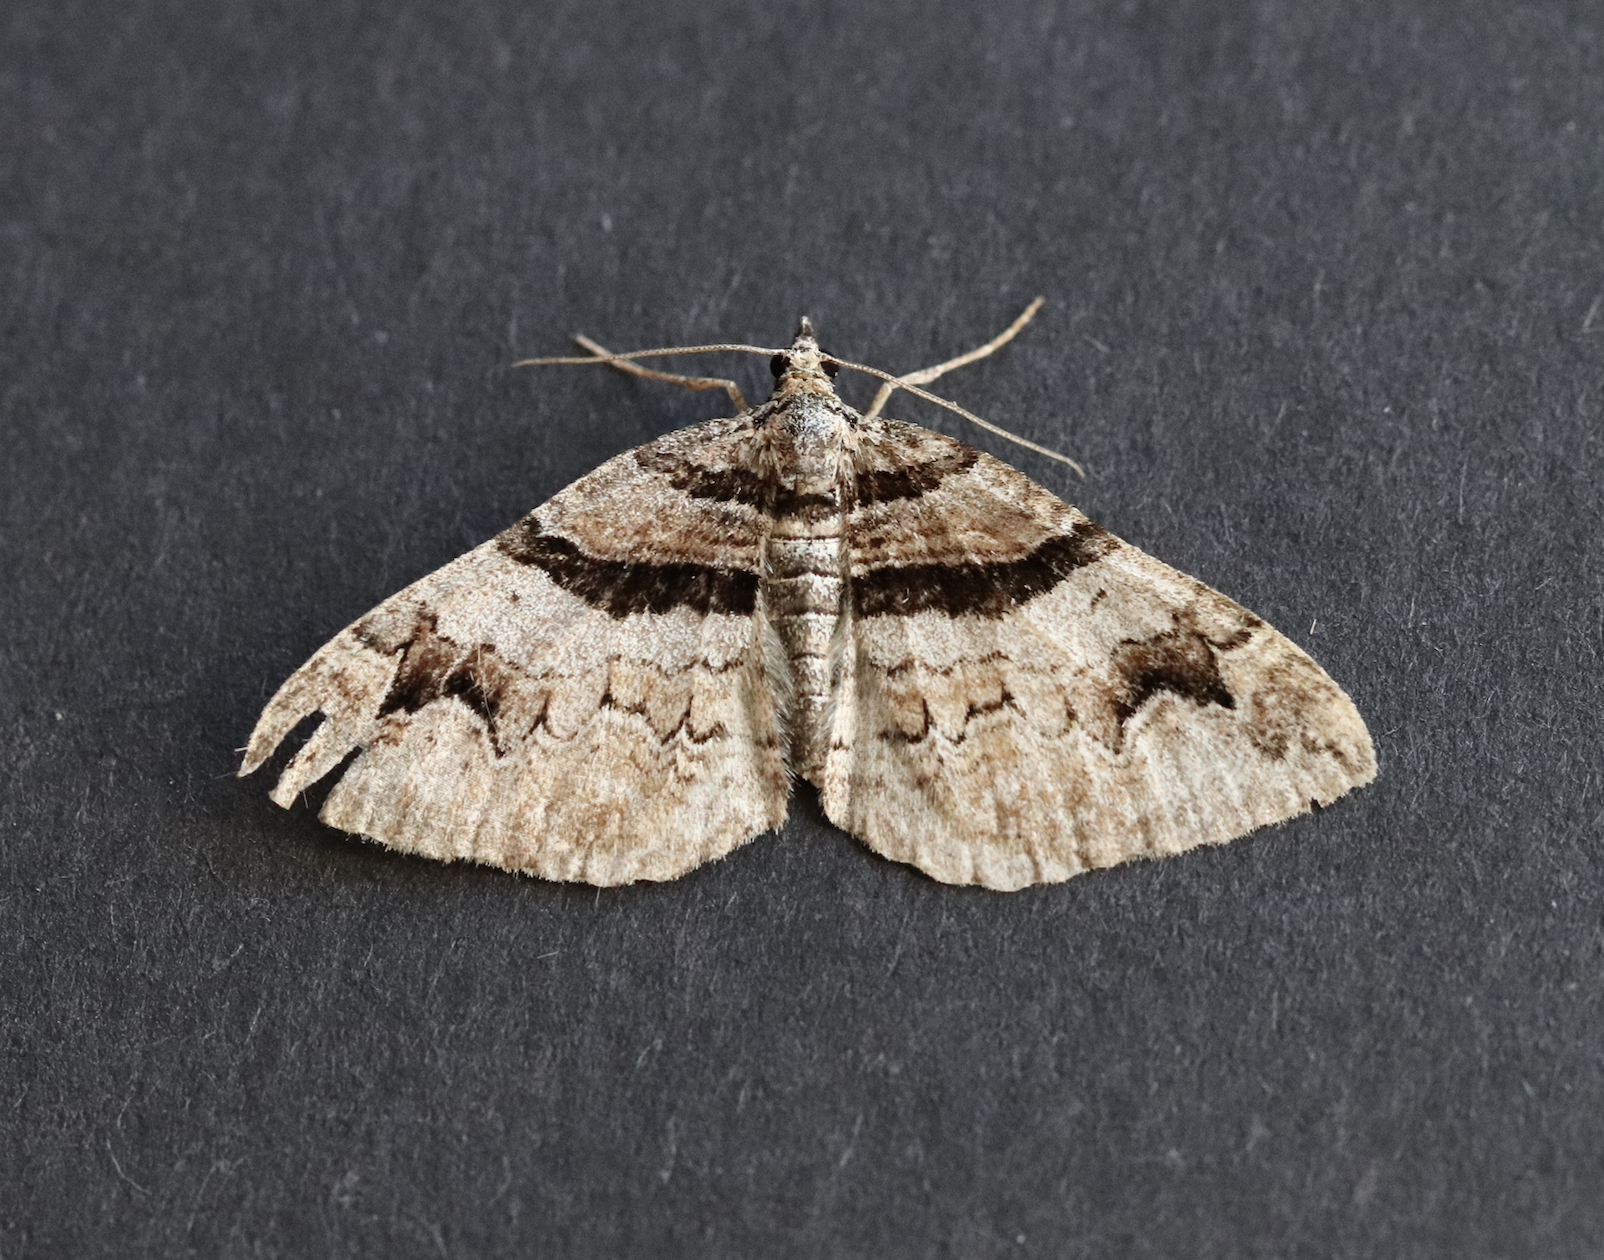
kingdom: Animalia
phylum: Arthropoda
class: Insecta
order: Lepidoptera
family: Geometridae
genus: Pareulype
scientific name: Pareulype berberata
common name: Barberry carpet
